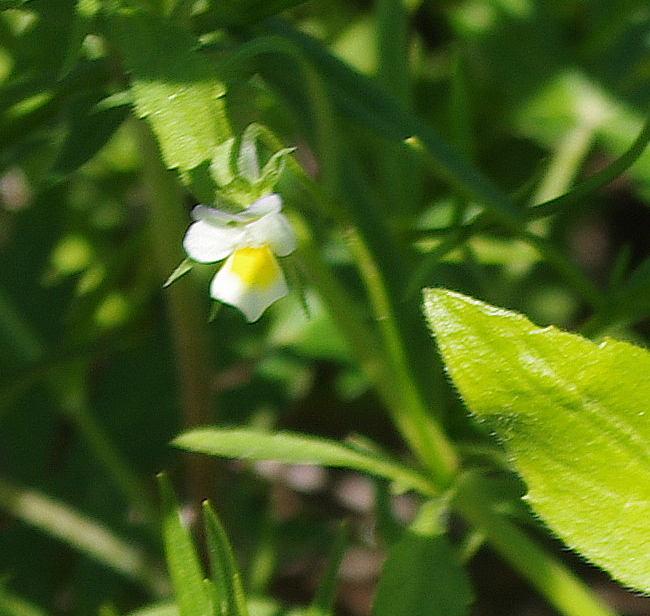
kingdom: Plantae
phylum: Tracheophyta
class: Magnoliopsida
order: Malpighiales
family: Violaceae
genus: Viola
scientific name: Viola arvensis
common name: Field pansy
